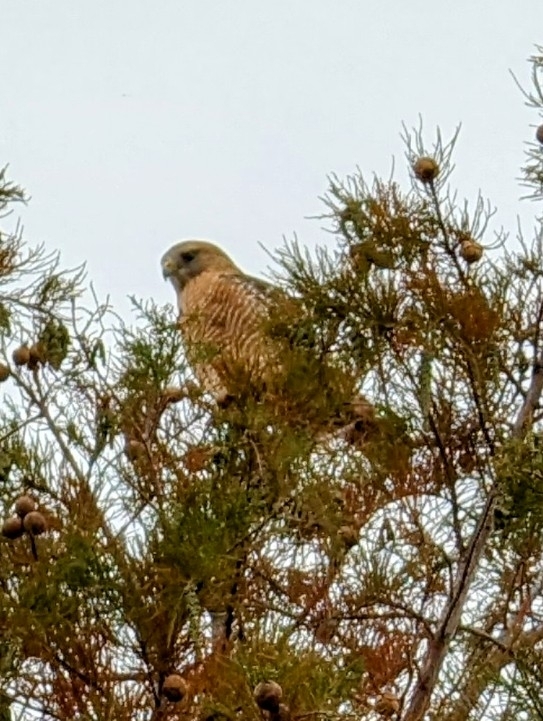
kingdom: Animalia
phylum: Chordata
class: Aves
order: Accipitriformes
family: Accipitridae
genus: Buteo
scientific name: Buteo lineatus
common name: Red-shouldered hawk
